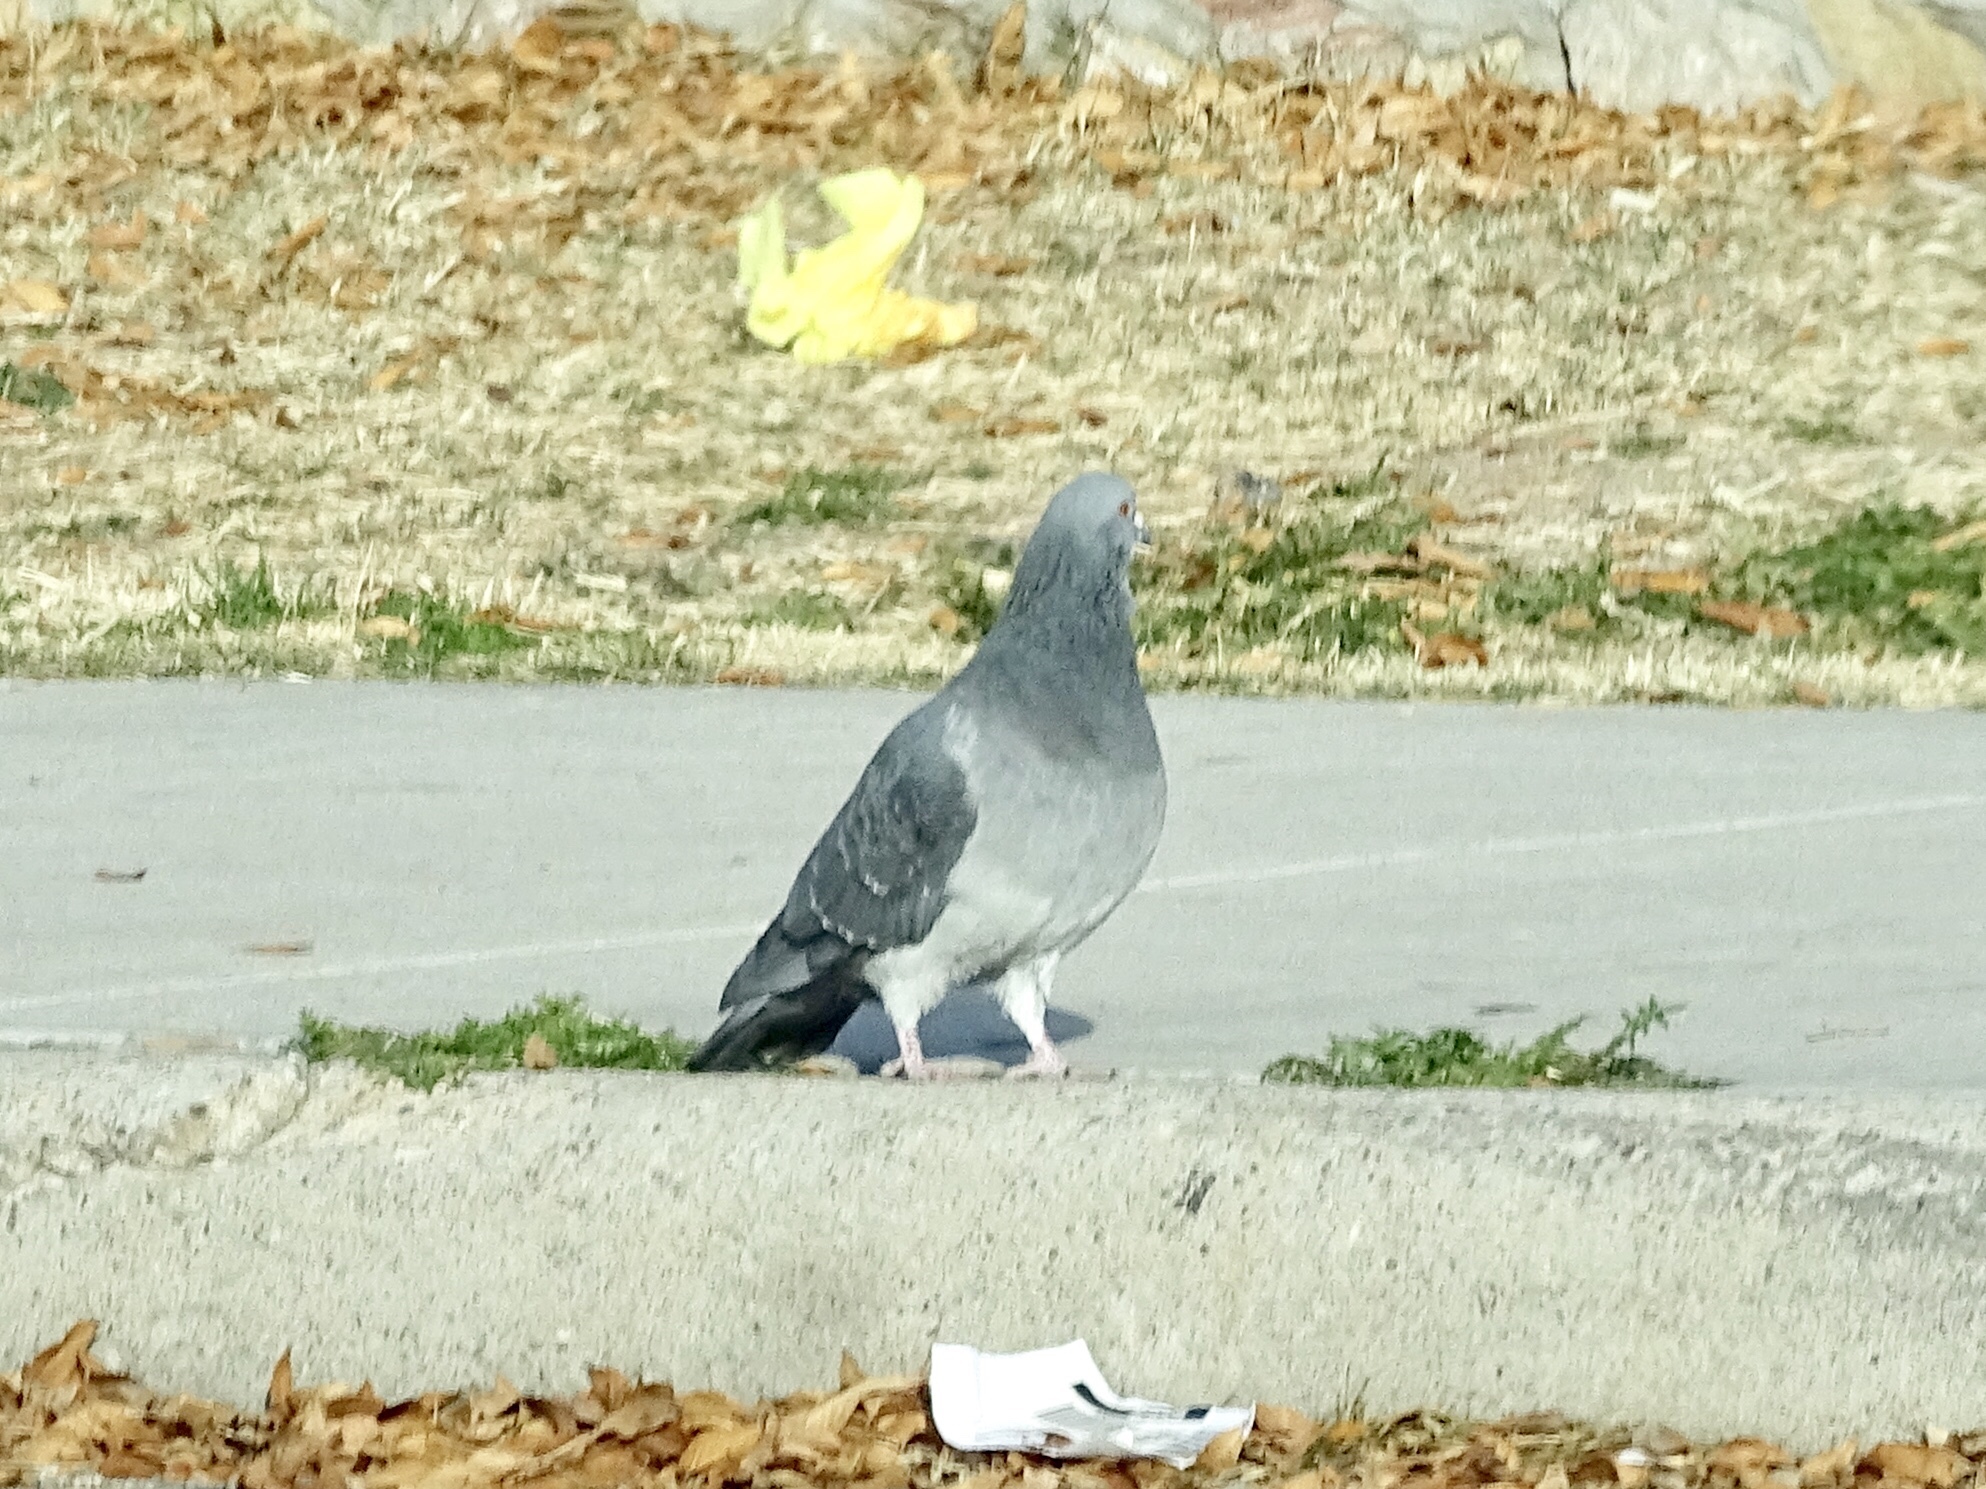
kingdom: Animalia
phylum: Chordata
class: Aves
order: Columbiformes
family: Columbidae
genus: Columba
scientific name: Columba livia
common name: Rock pigeon
